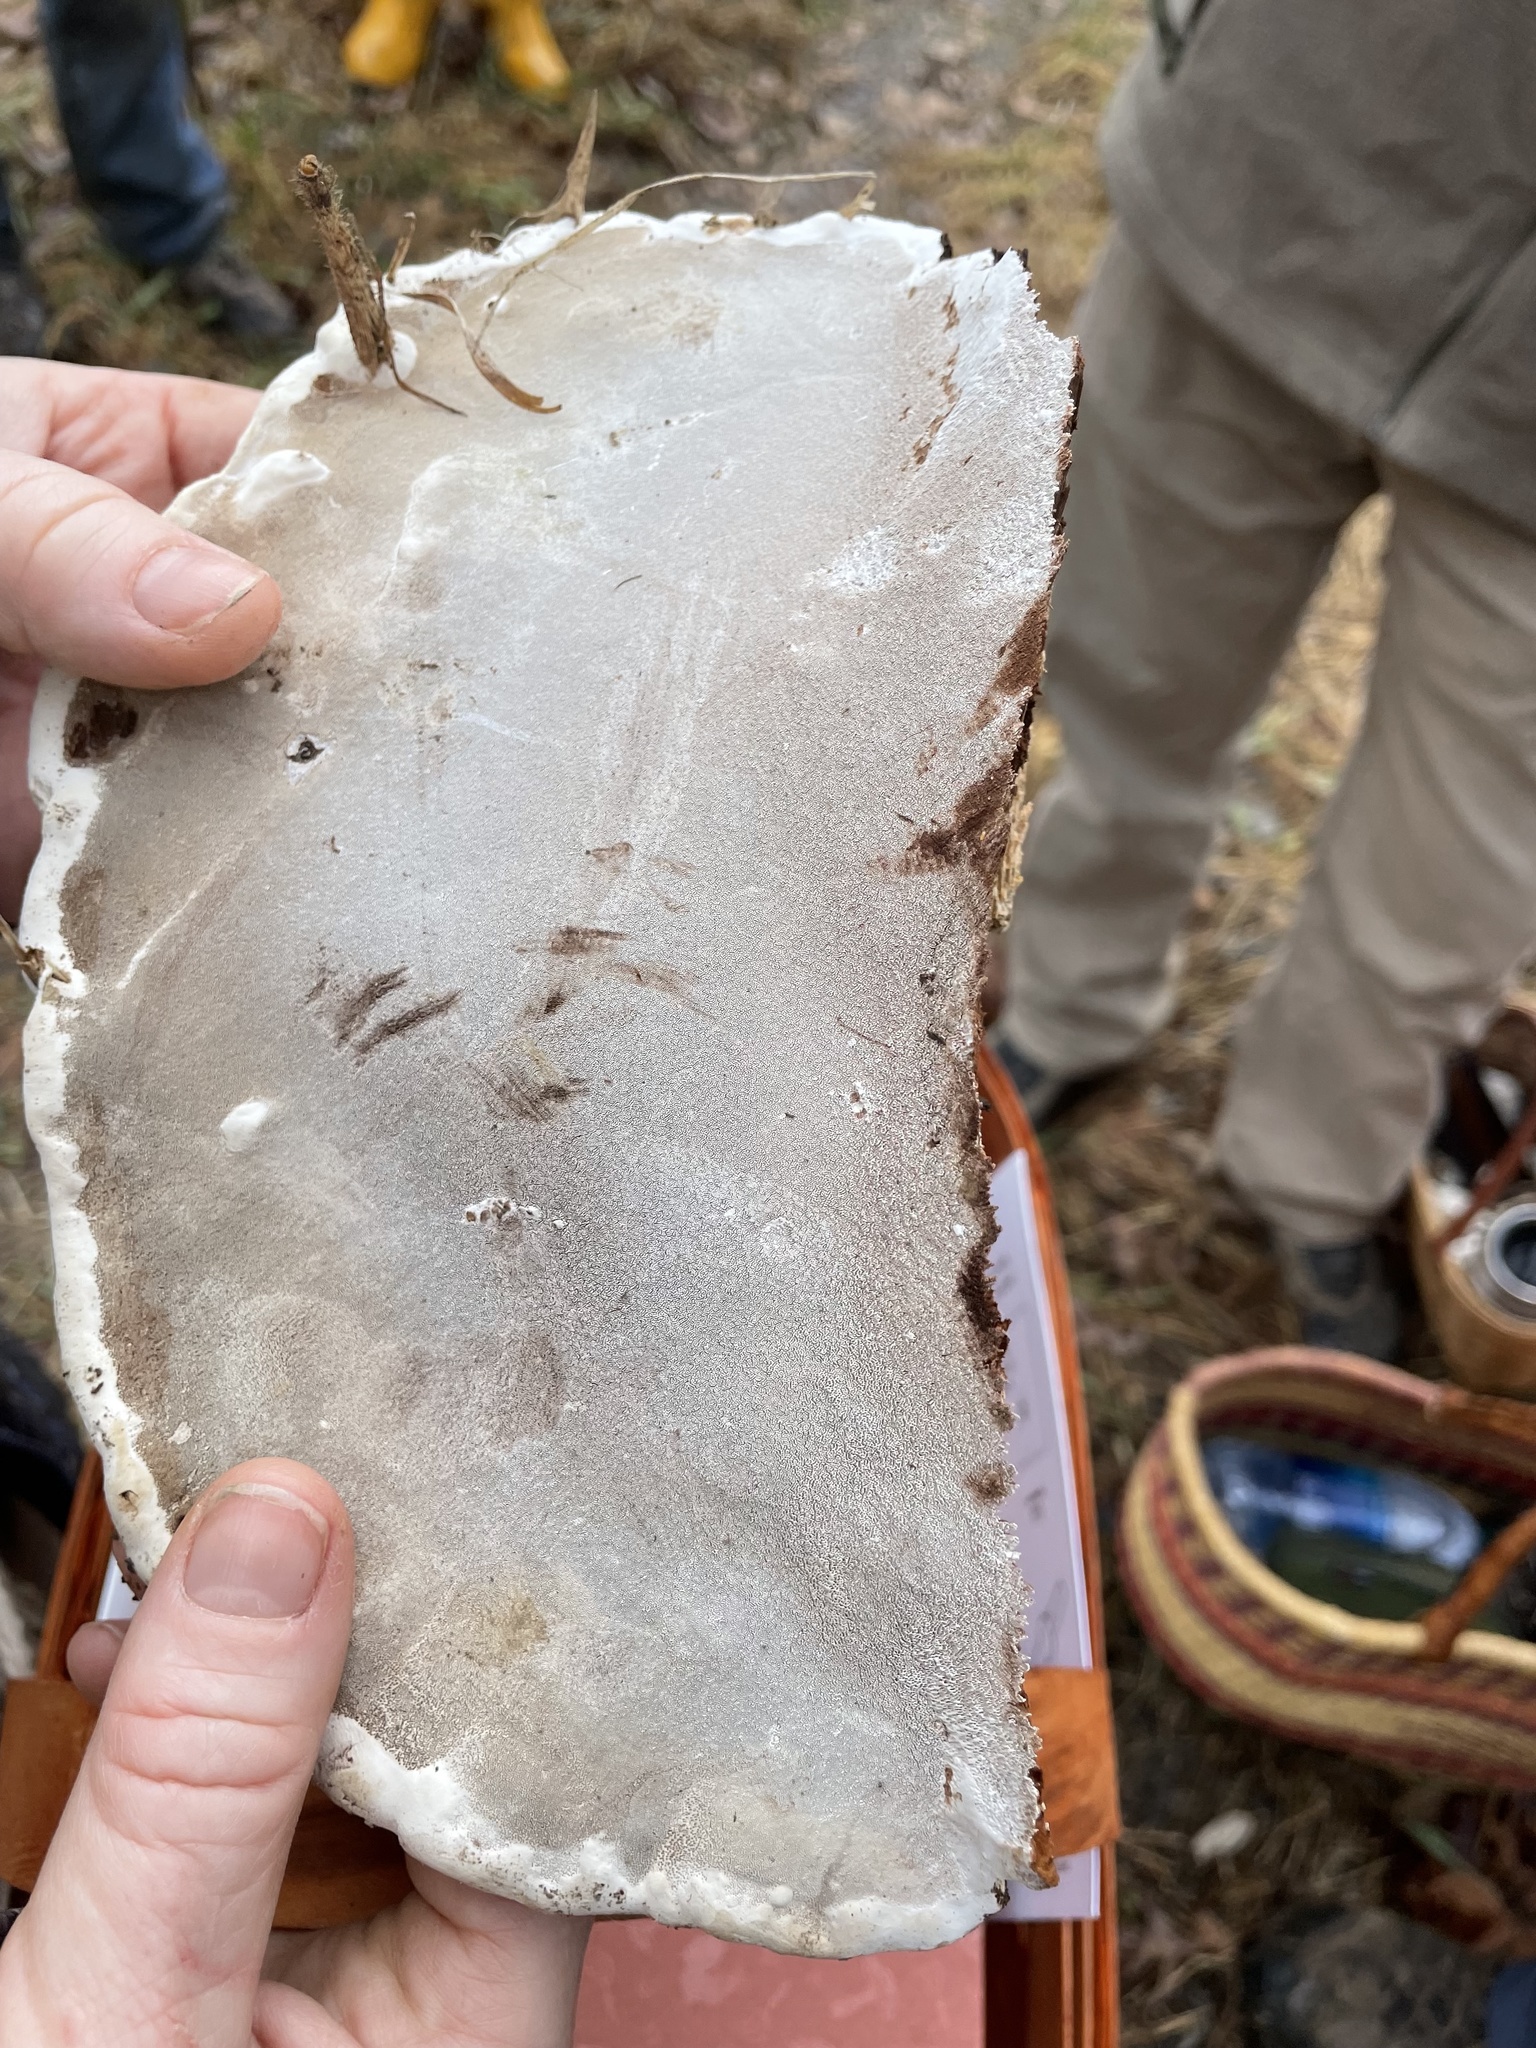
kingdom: Fungi
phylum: Basidiomycota
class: Agaricomycetes
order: Polyporales
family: Polyporaceae
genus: Ganoderma
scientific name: Ganoderma lobatum
